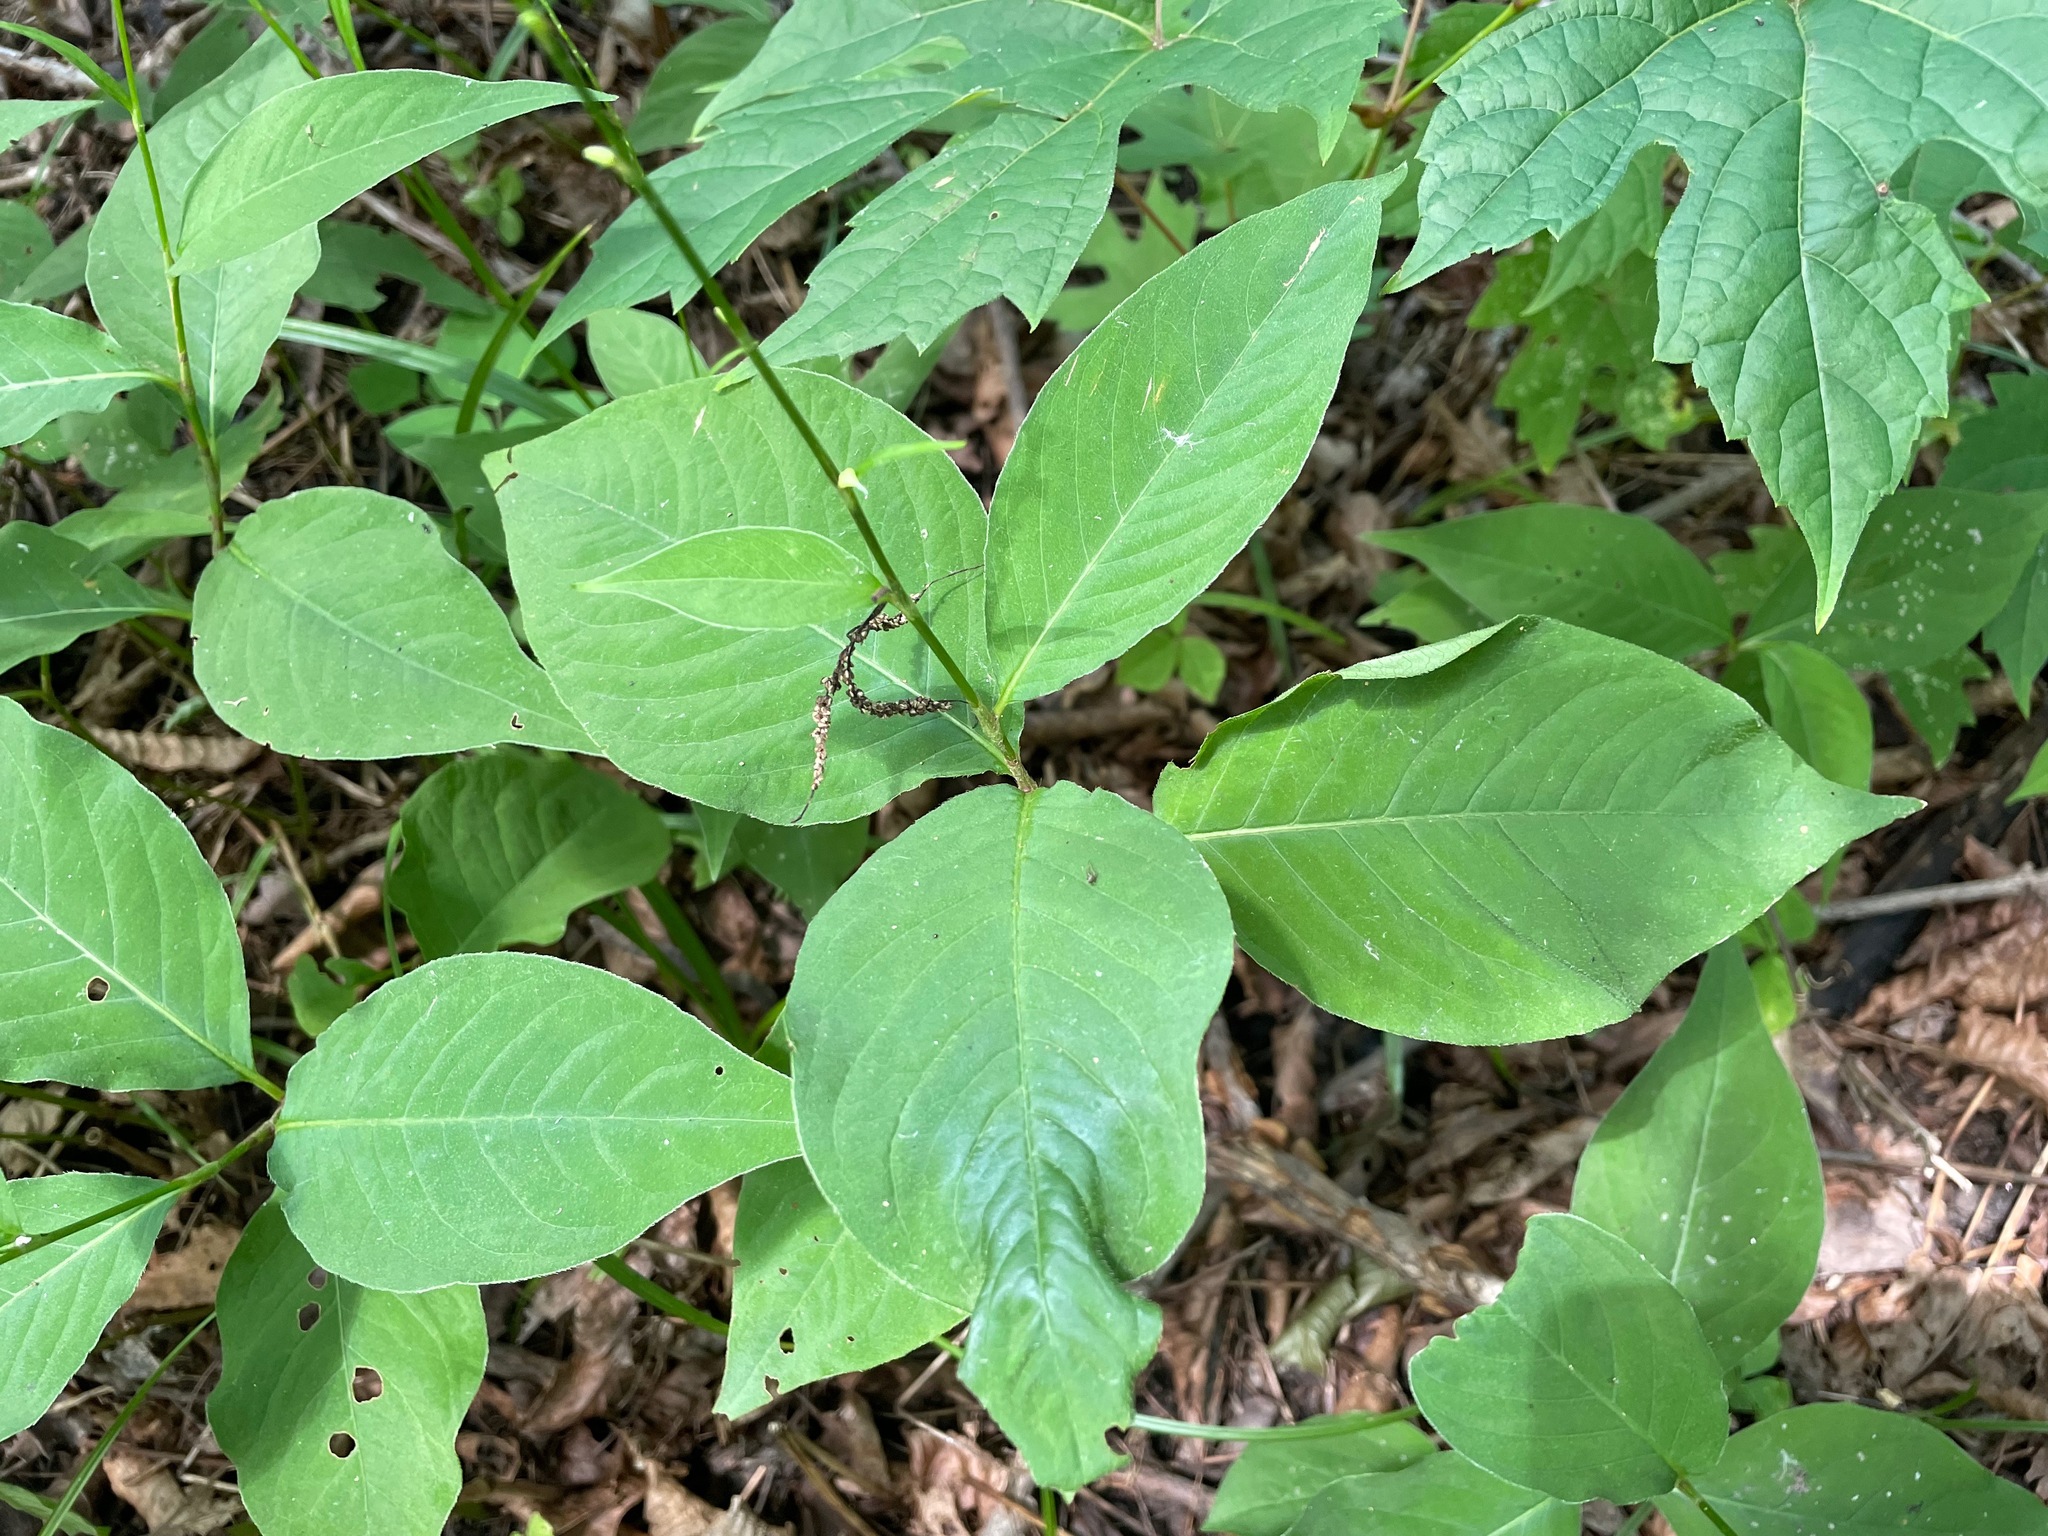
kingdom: Plantae
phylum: Tracheophyta
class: Magnoliopsida
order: Caryophyllales
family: Polygonaceae
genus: Persicaria
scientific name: Persicaria virginiana
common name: Jumpseed
